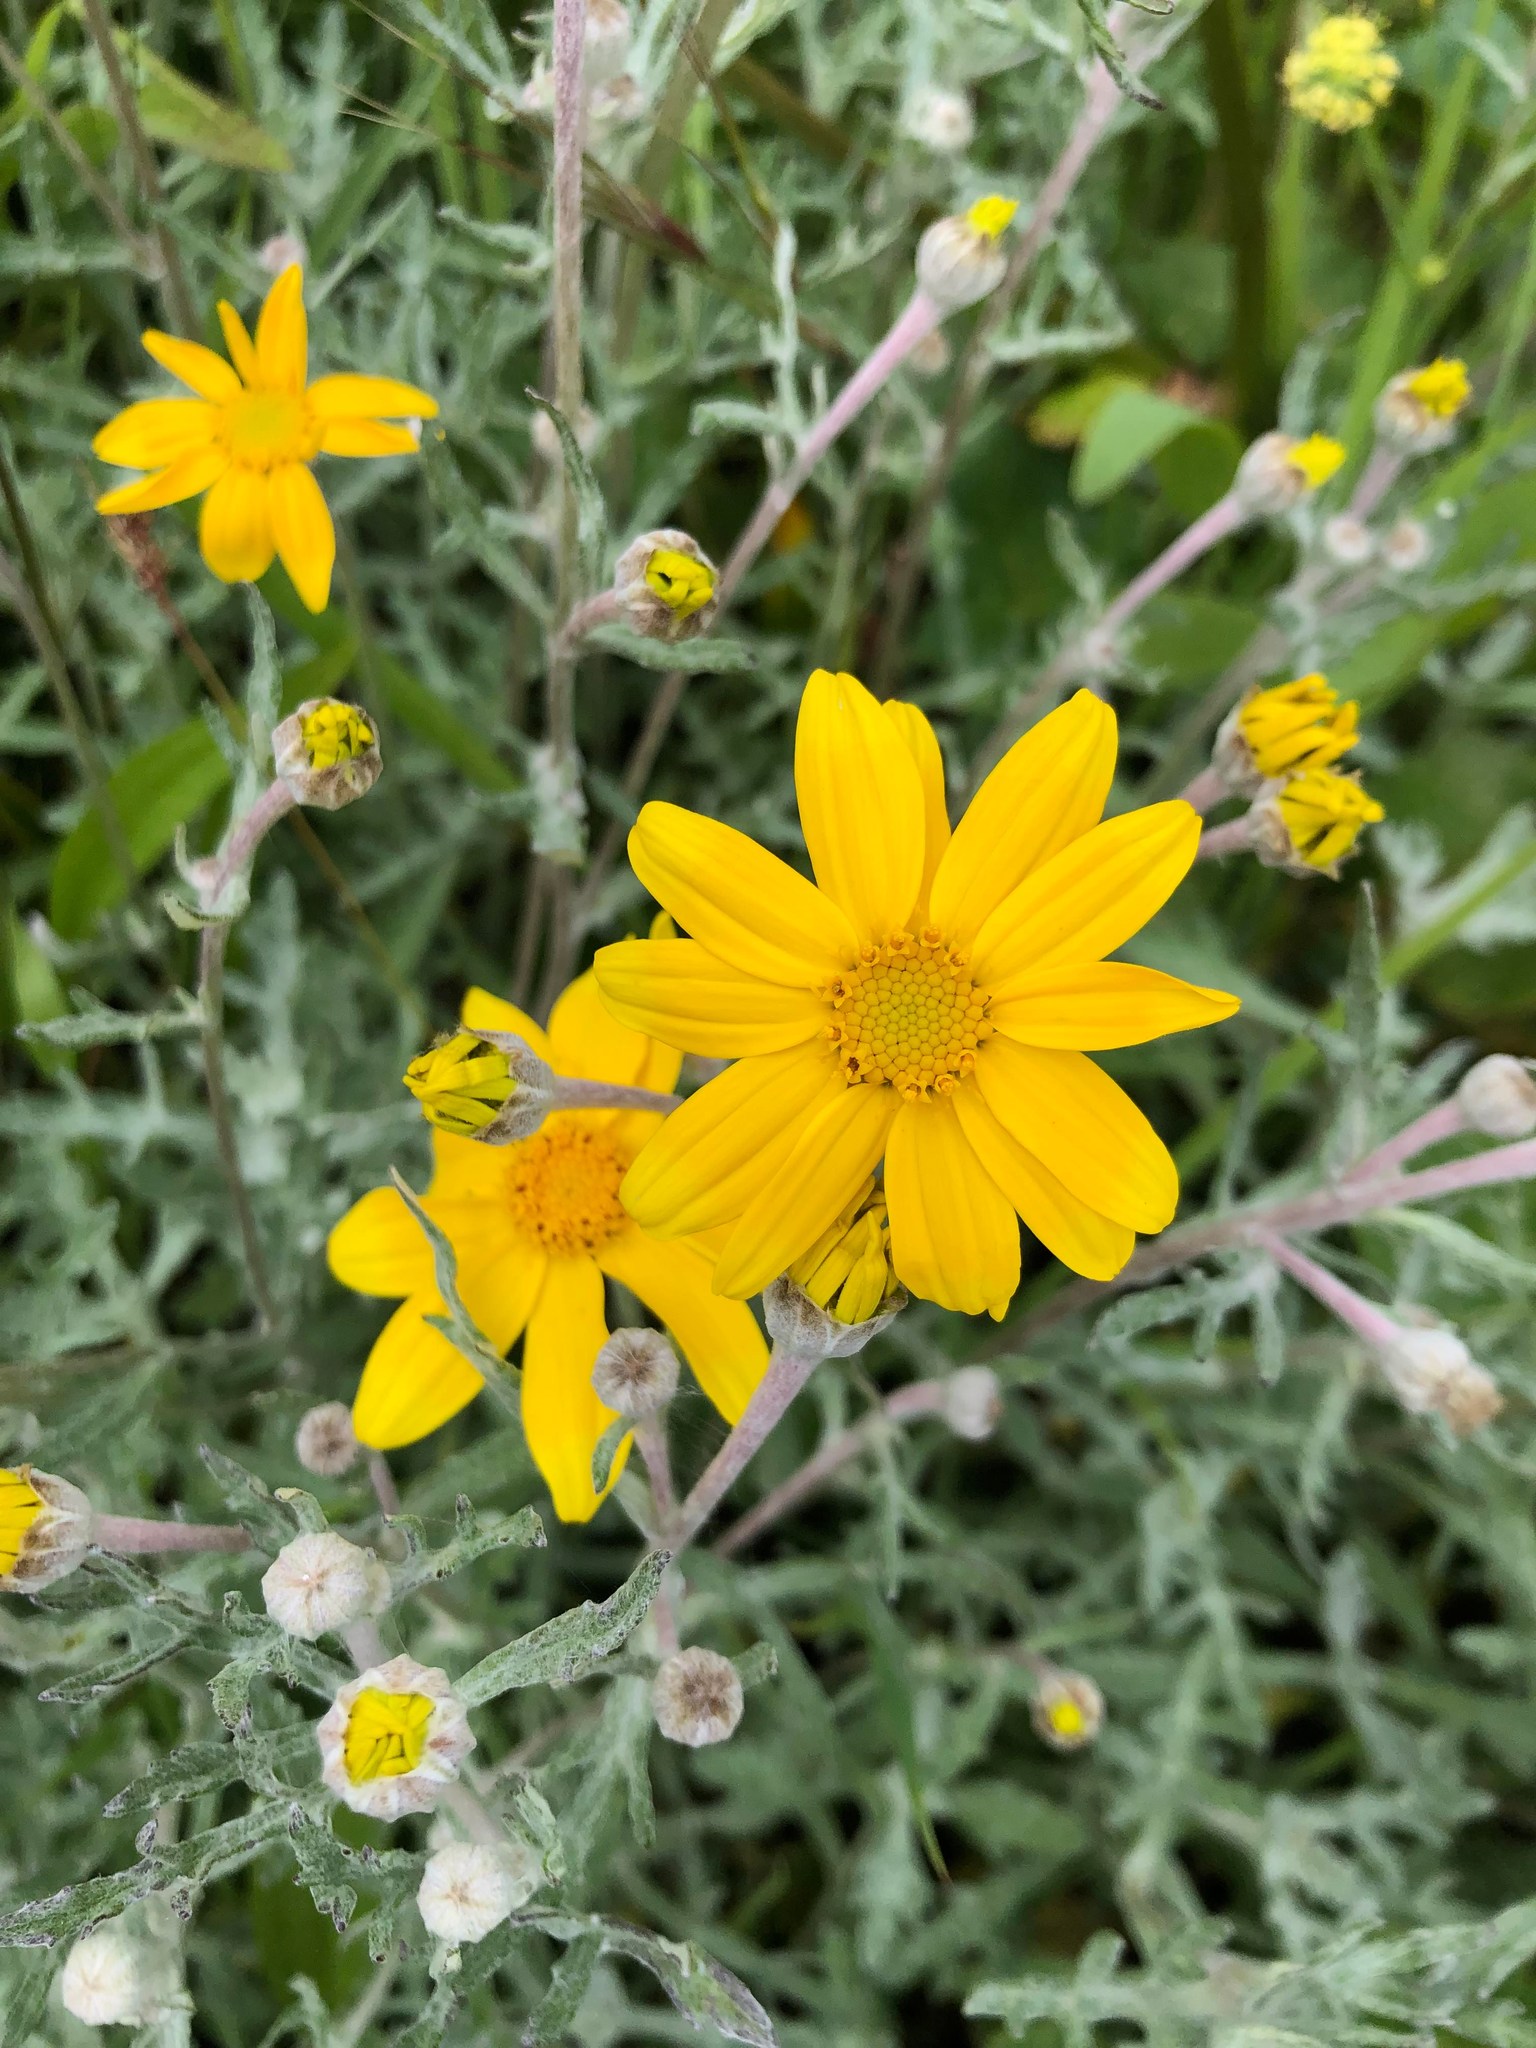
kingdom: Plantae
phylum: Tracheophyta
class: Magnoliopsida
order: Asterales
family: Asteraceae
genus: Eriophyllum
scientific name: Eriophyllum lanatum
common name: Common woolly-sunflower
